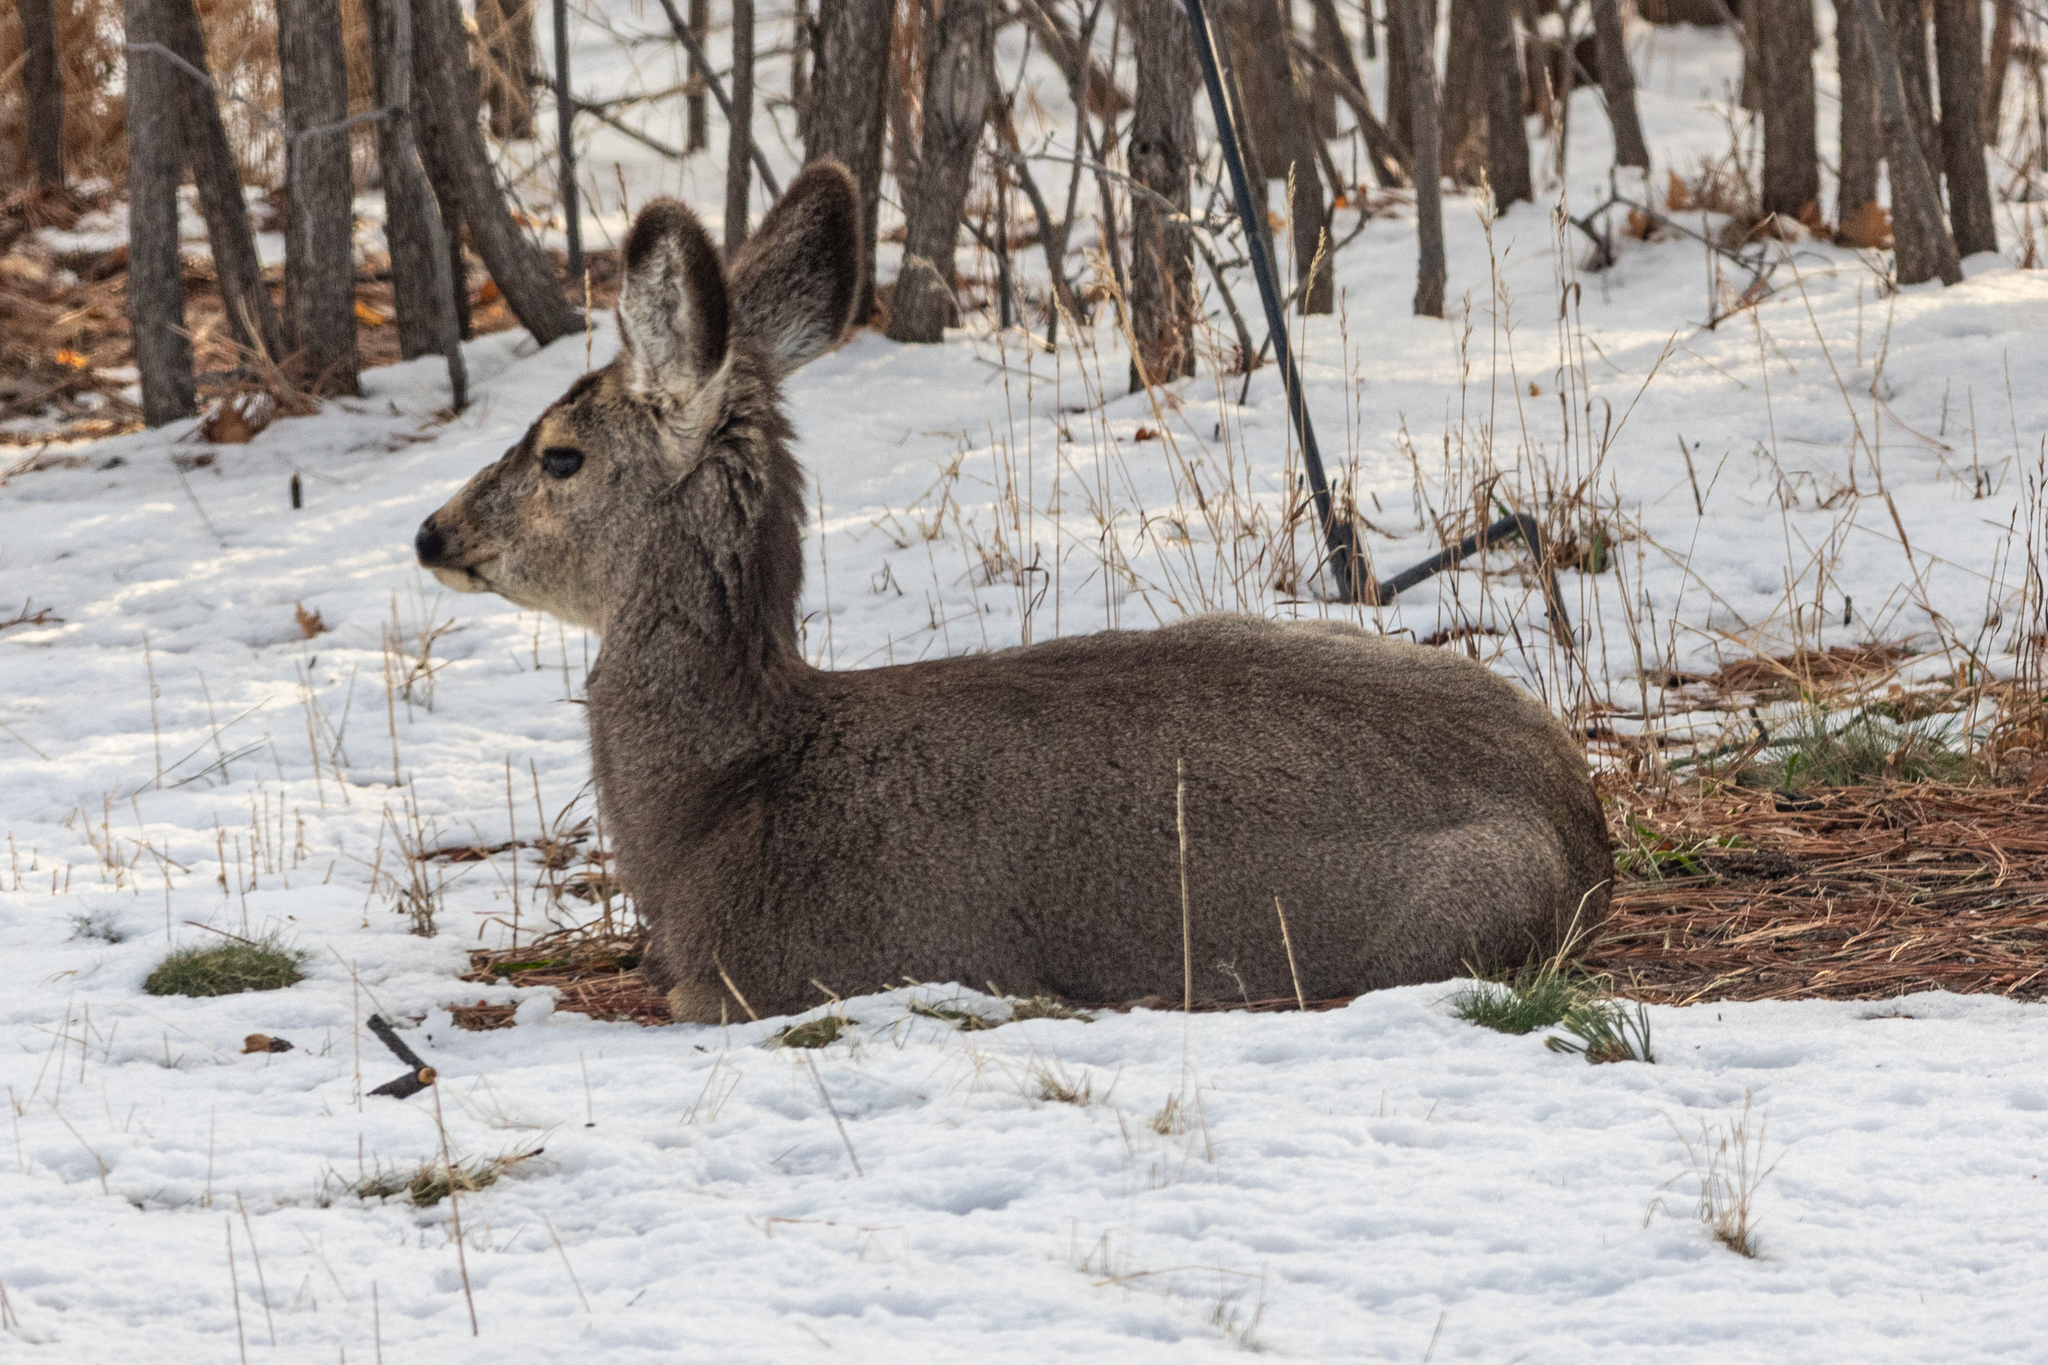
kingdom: Animalia
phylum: Chordata
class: Mammalia
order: Artiodactyla
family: Cervidae
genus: Odocoileus
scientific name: Odocoileus hemionus
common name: Mule deer
